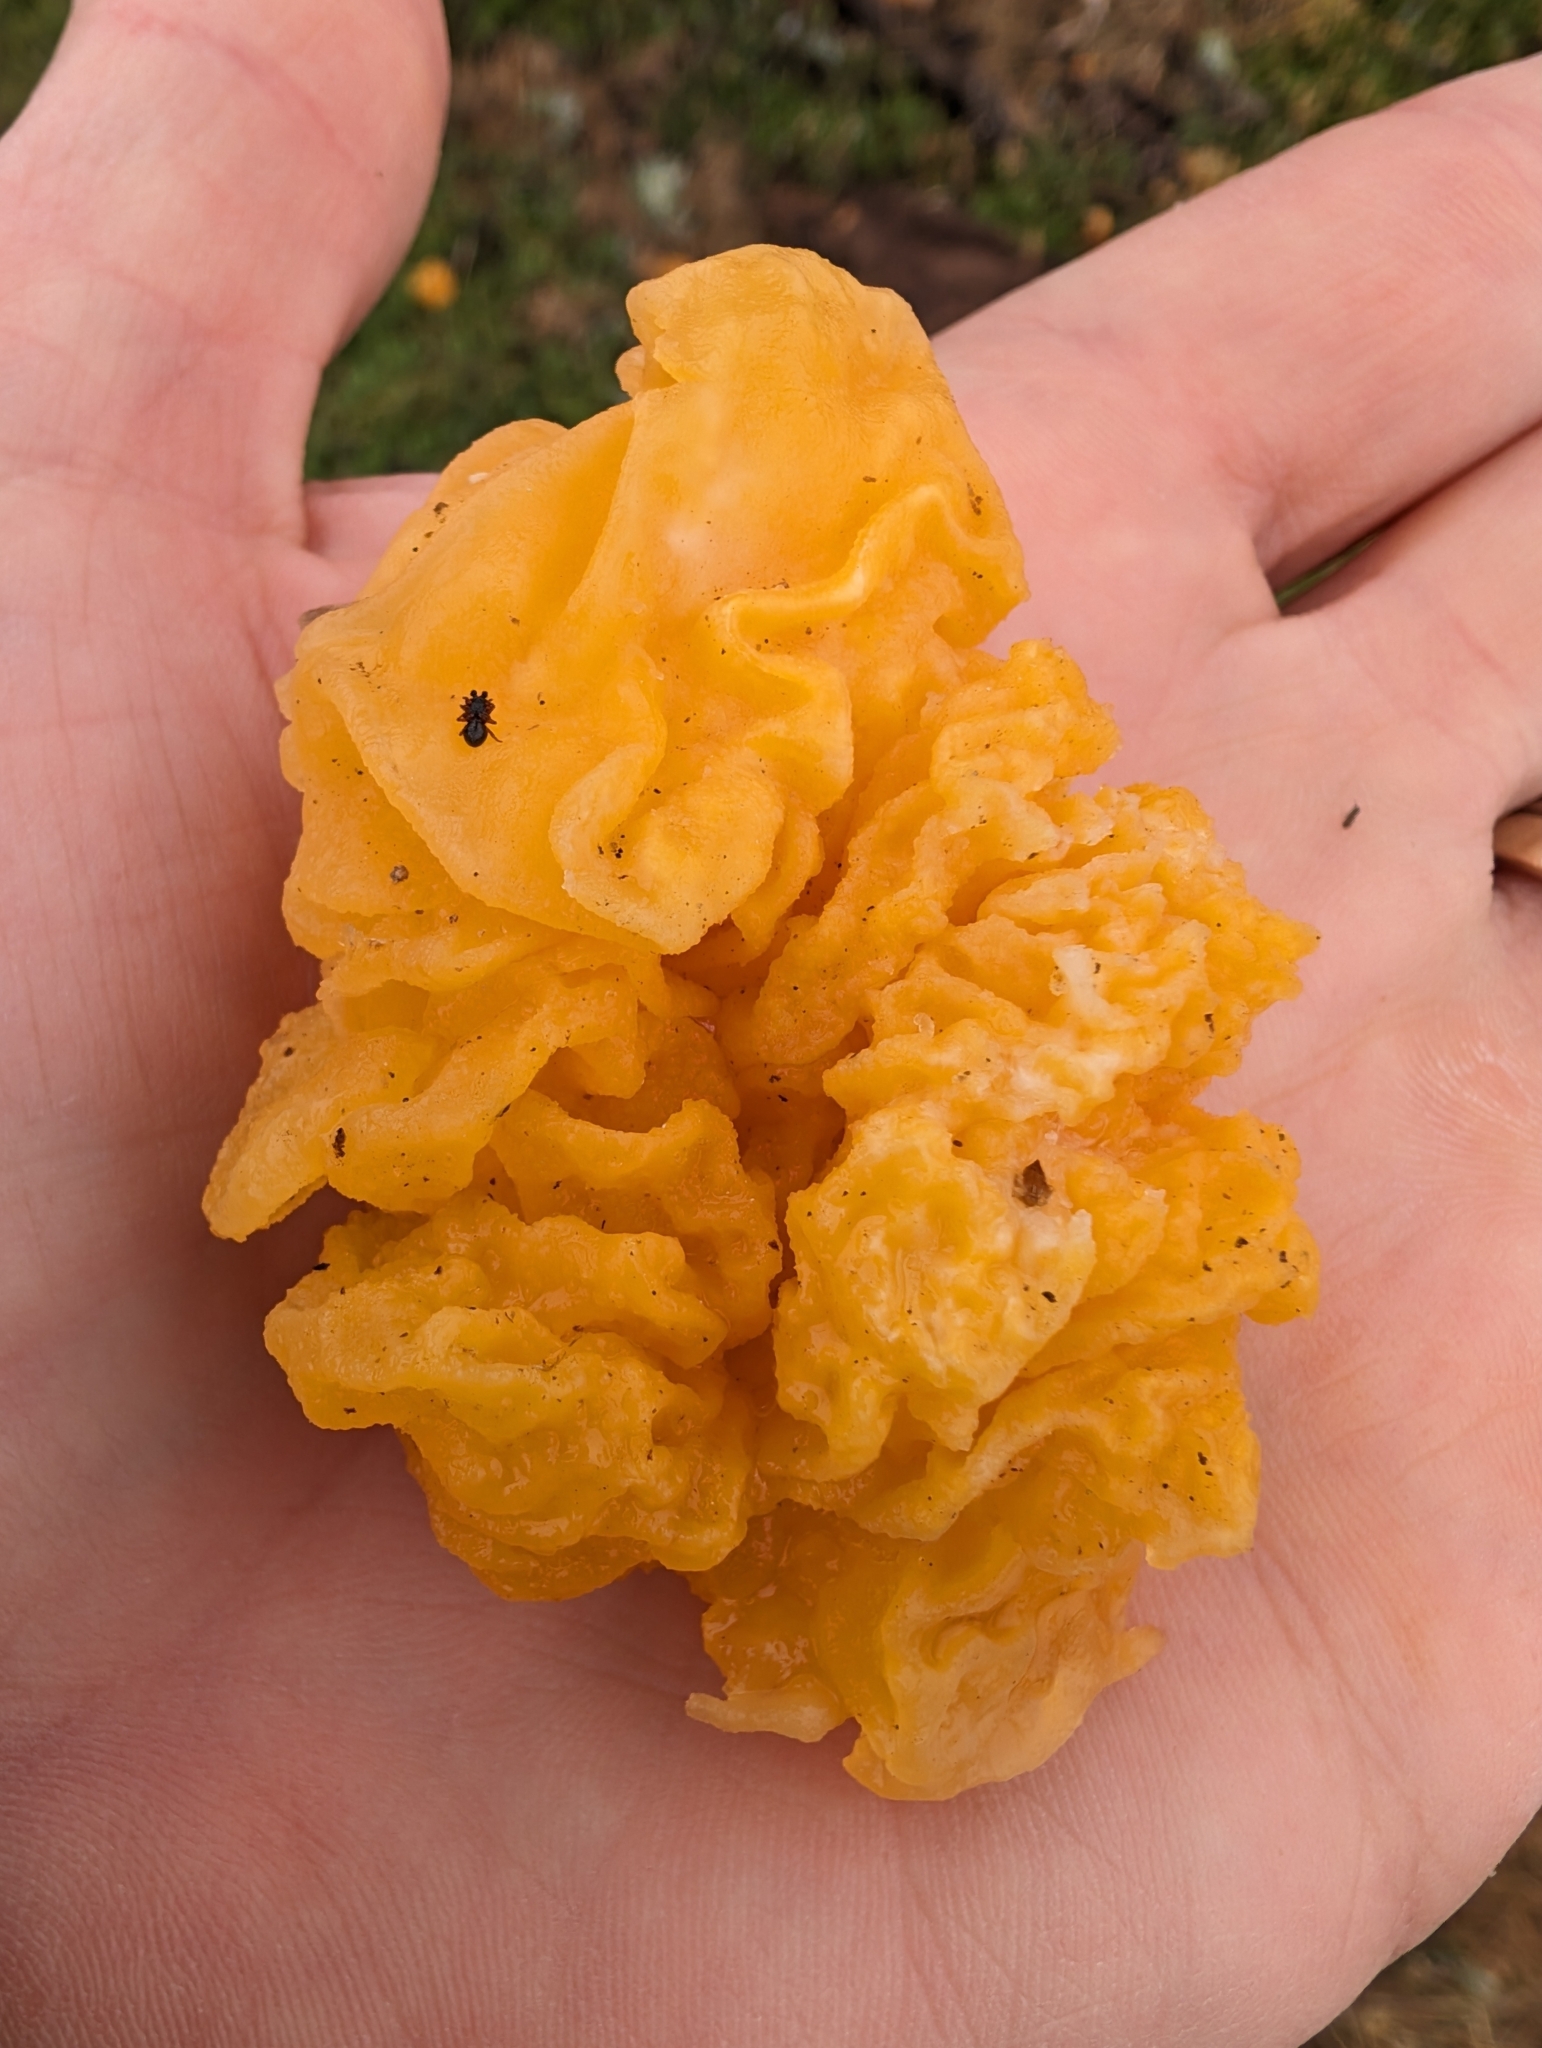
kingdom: Fungi
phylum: Basidiomycota
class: Tremellomycetes
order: Tremellales
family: Tremellaceae
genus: Tremella
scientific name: Tremella mesenterica
